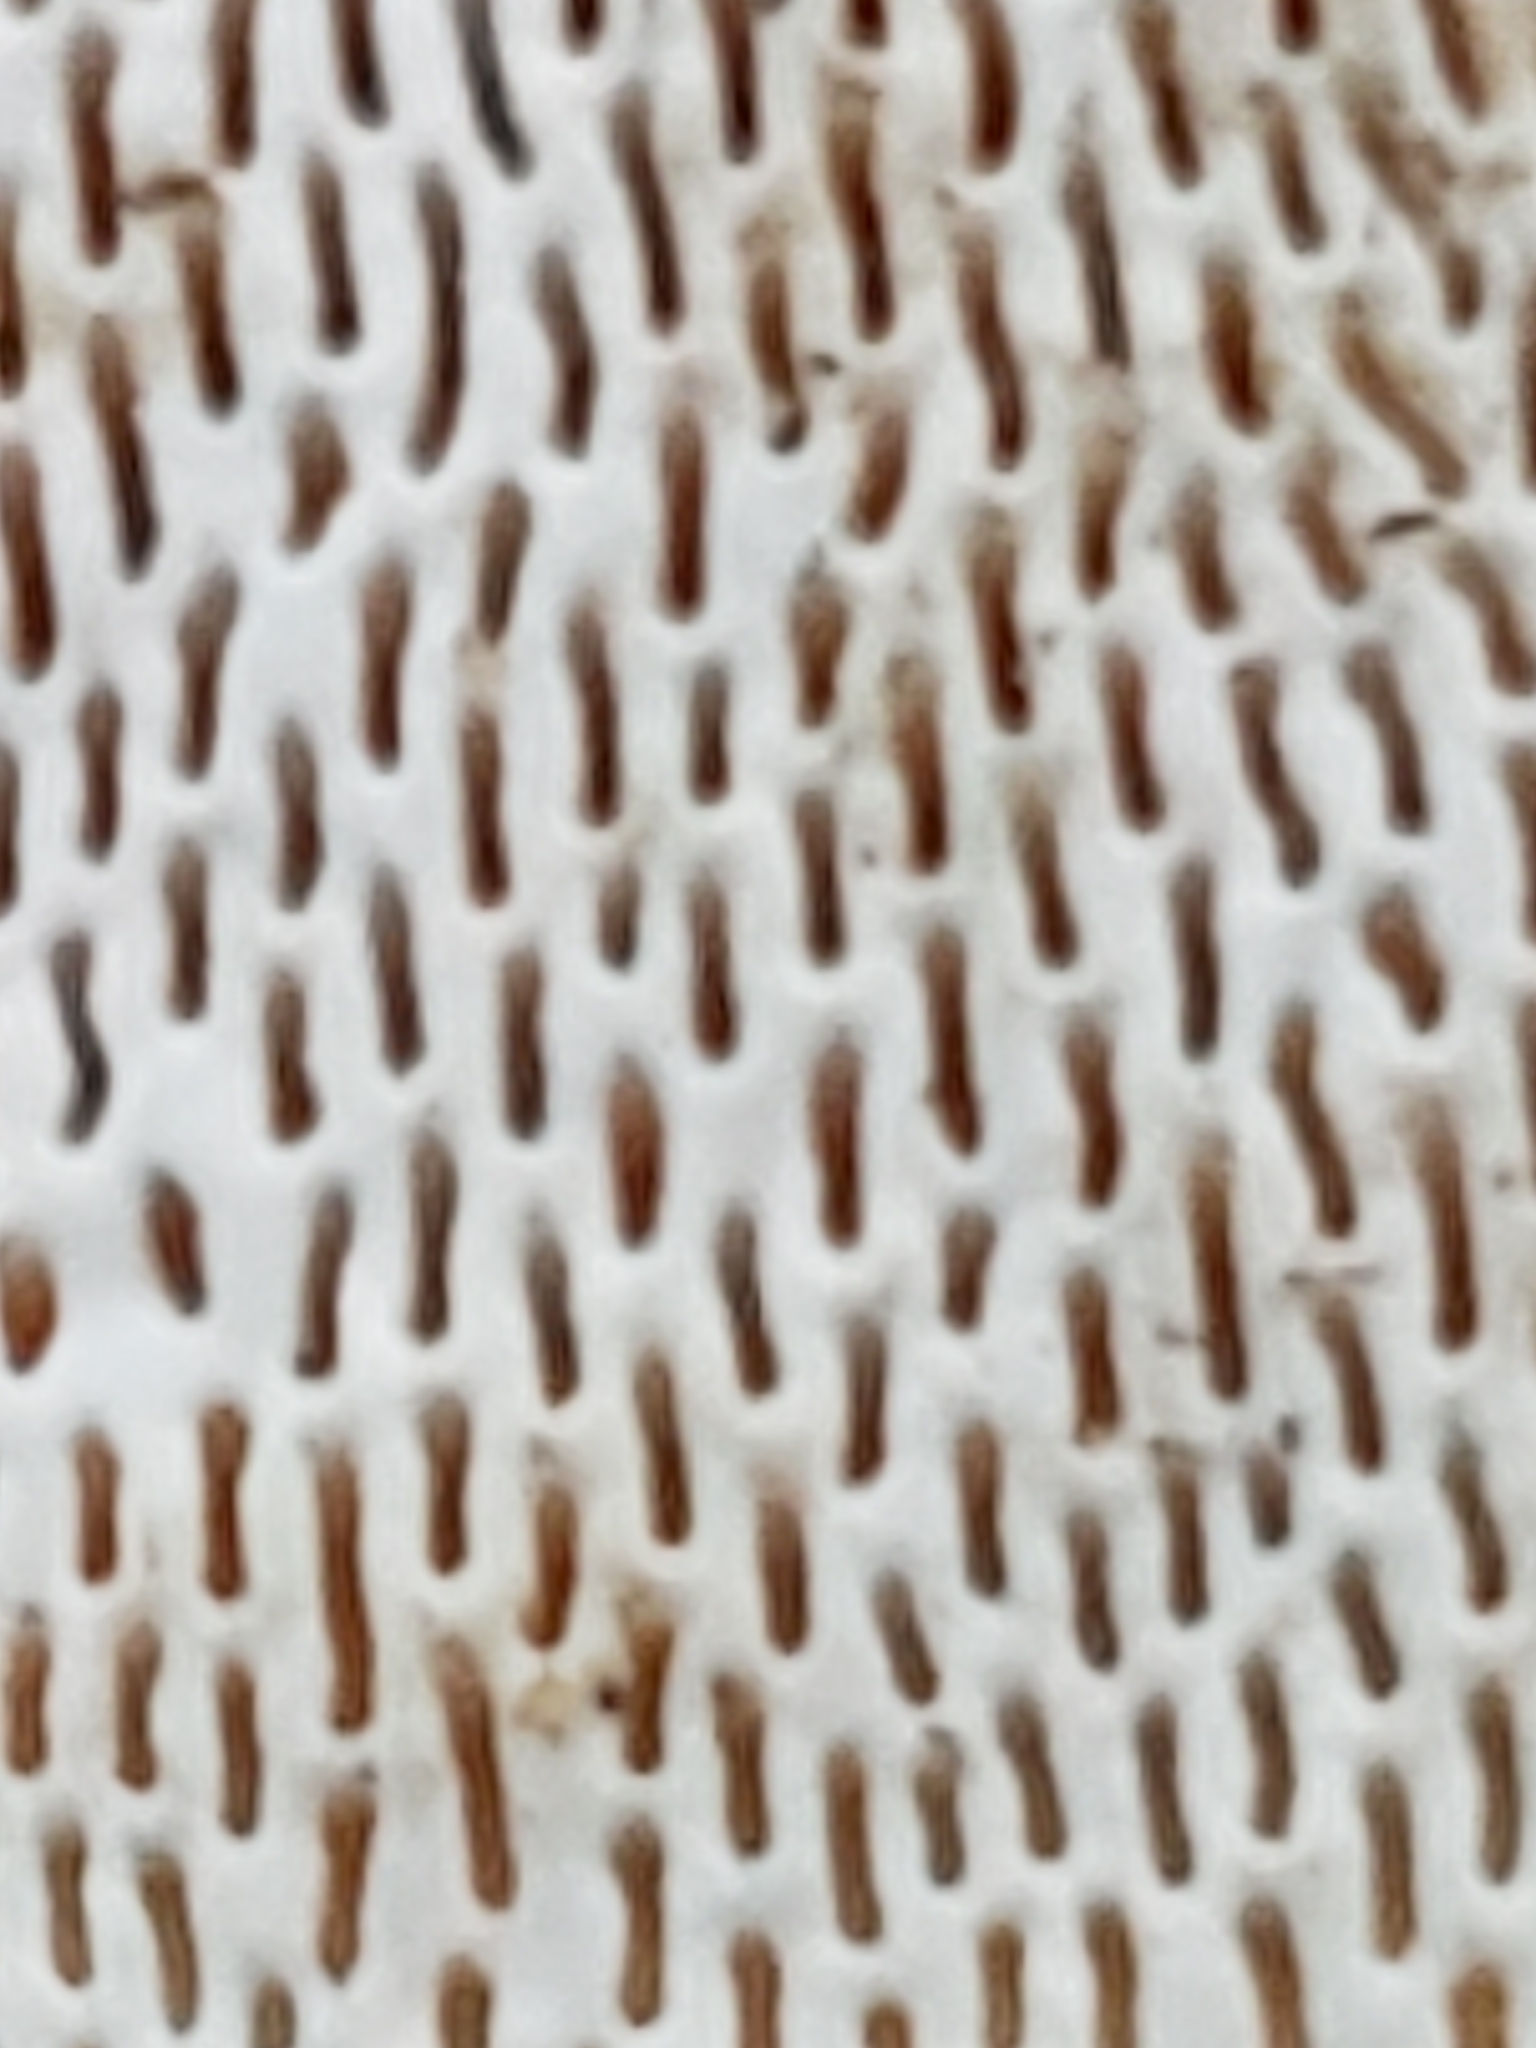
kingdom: Fungi
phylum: Basidiomycota
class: Agaricomycetes
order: Polyporales
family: Polyporaceae
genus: Trametes
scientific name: Trametes gibbosa
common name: Lumpy bracket
